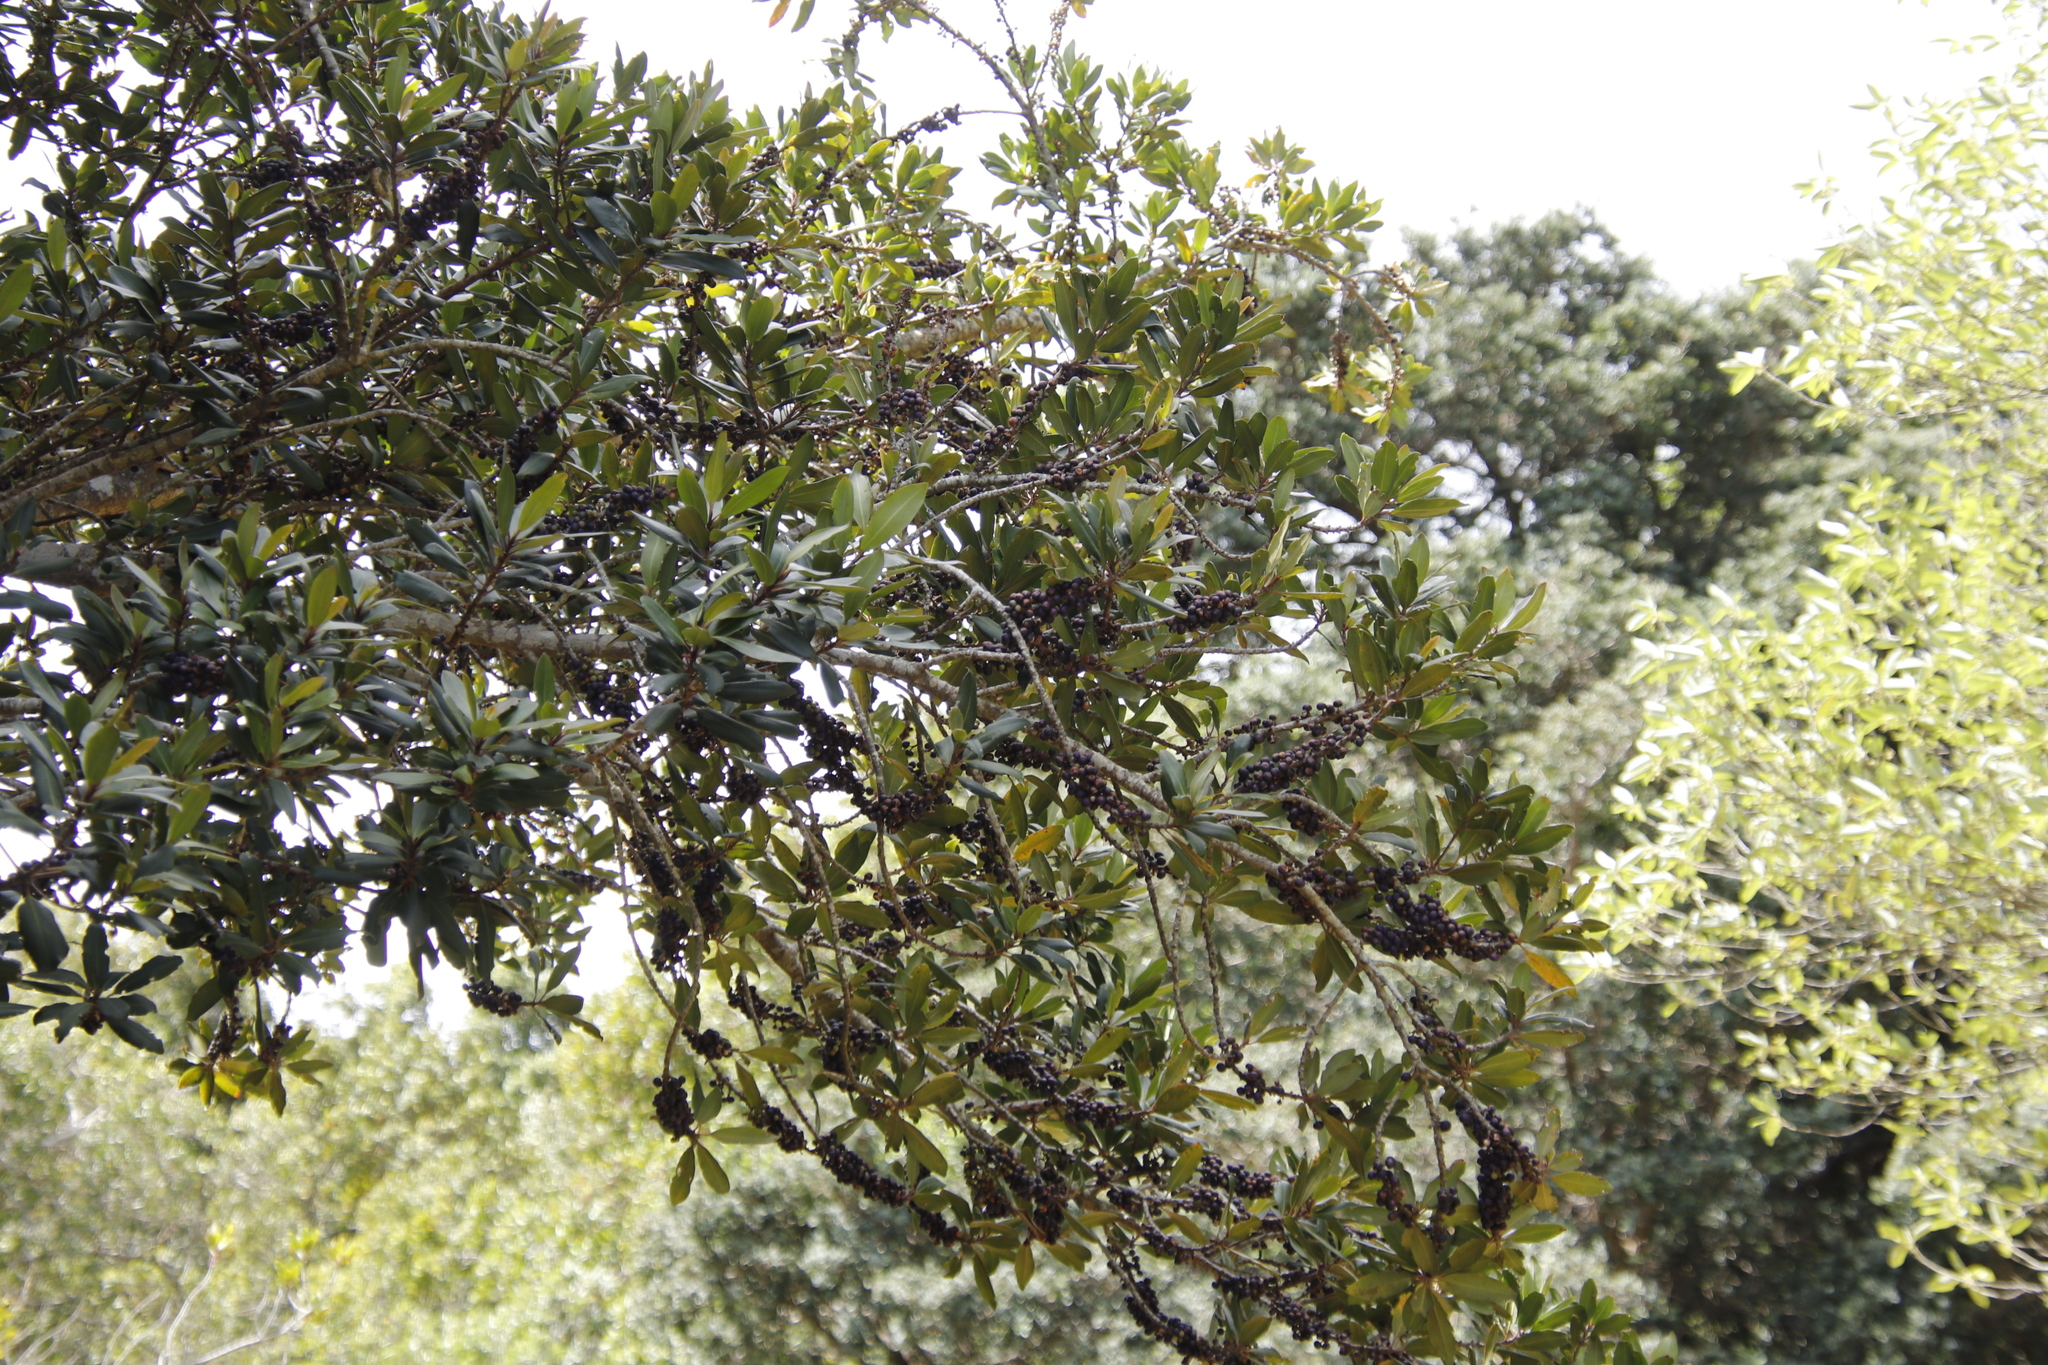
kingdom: Plantae
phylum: Tracheophyta
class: Magnoliopsida
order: Ericales
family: Primulaceae
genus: Myrsine
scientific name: Myrsine melanophloeos
